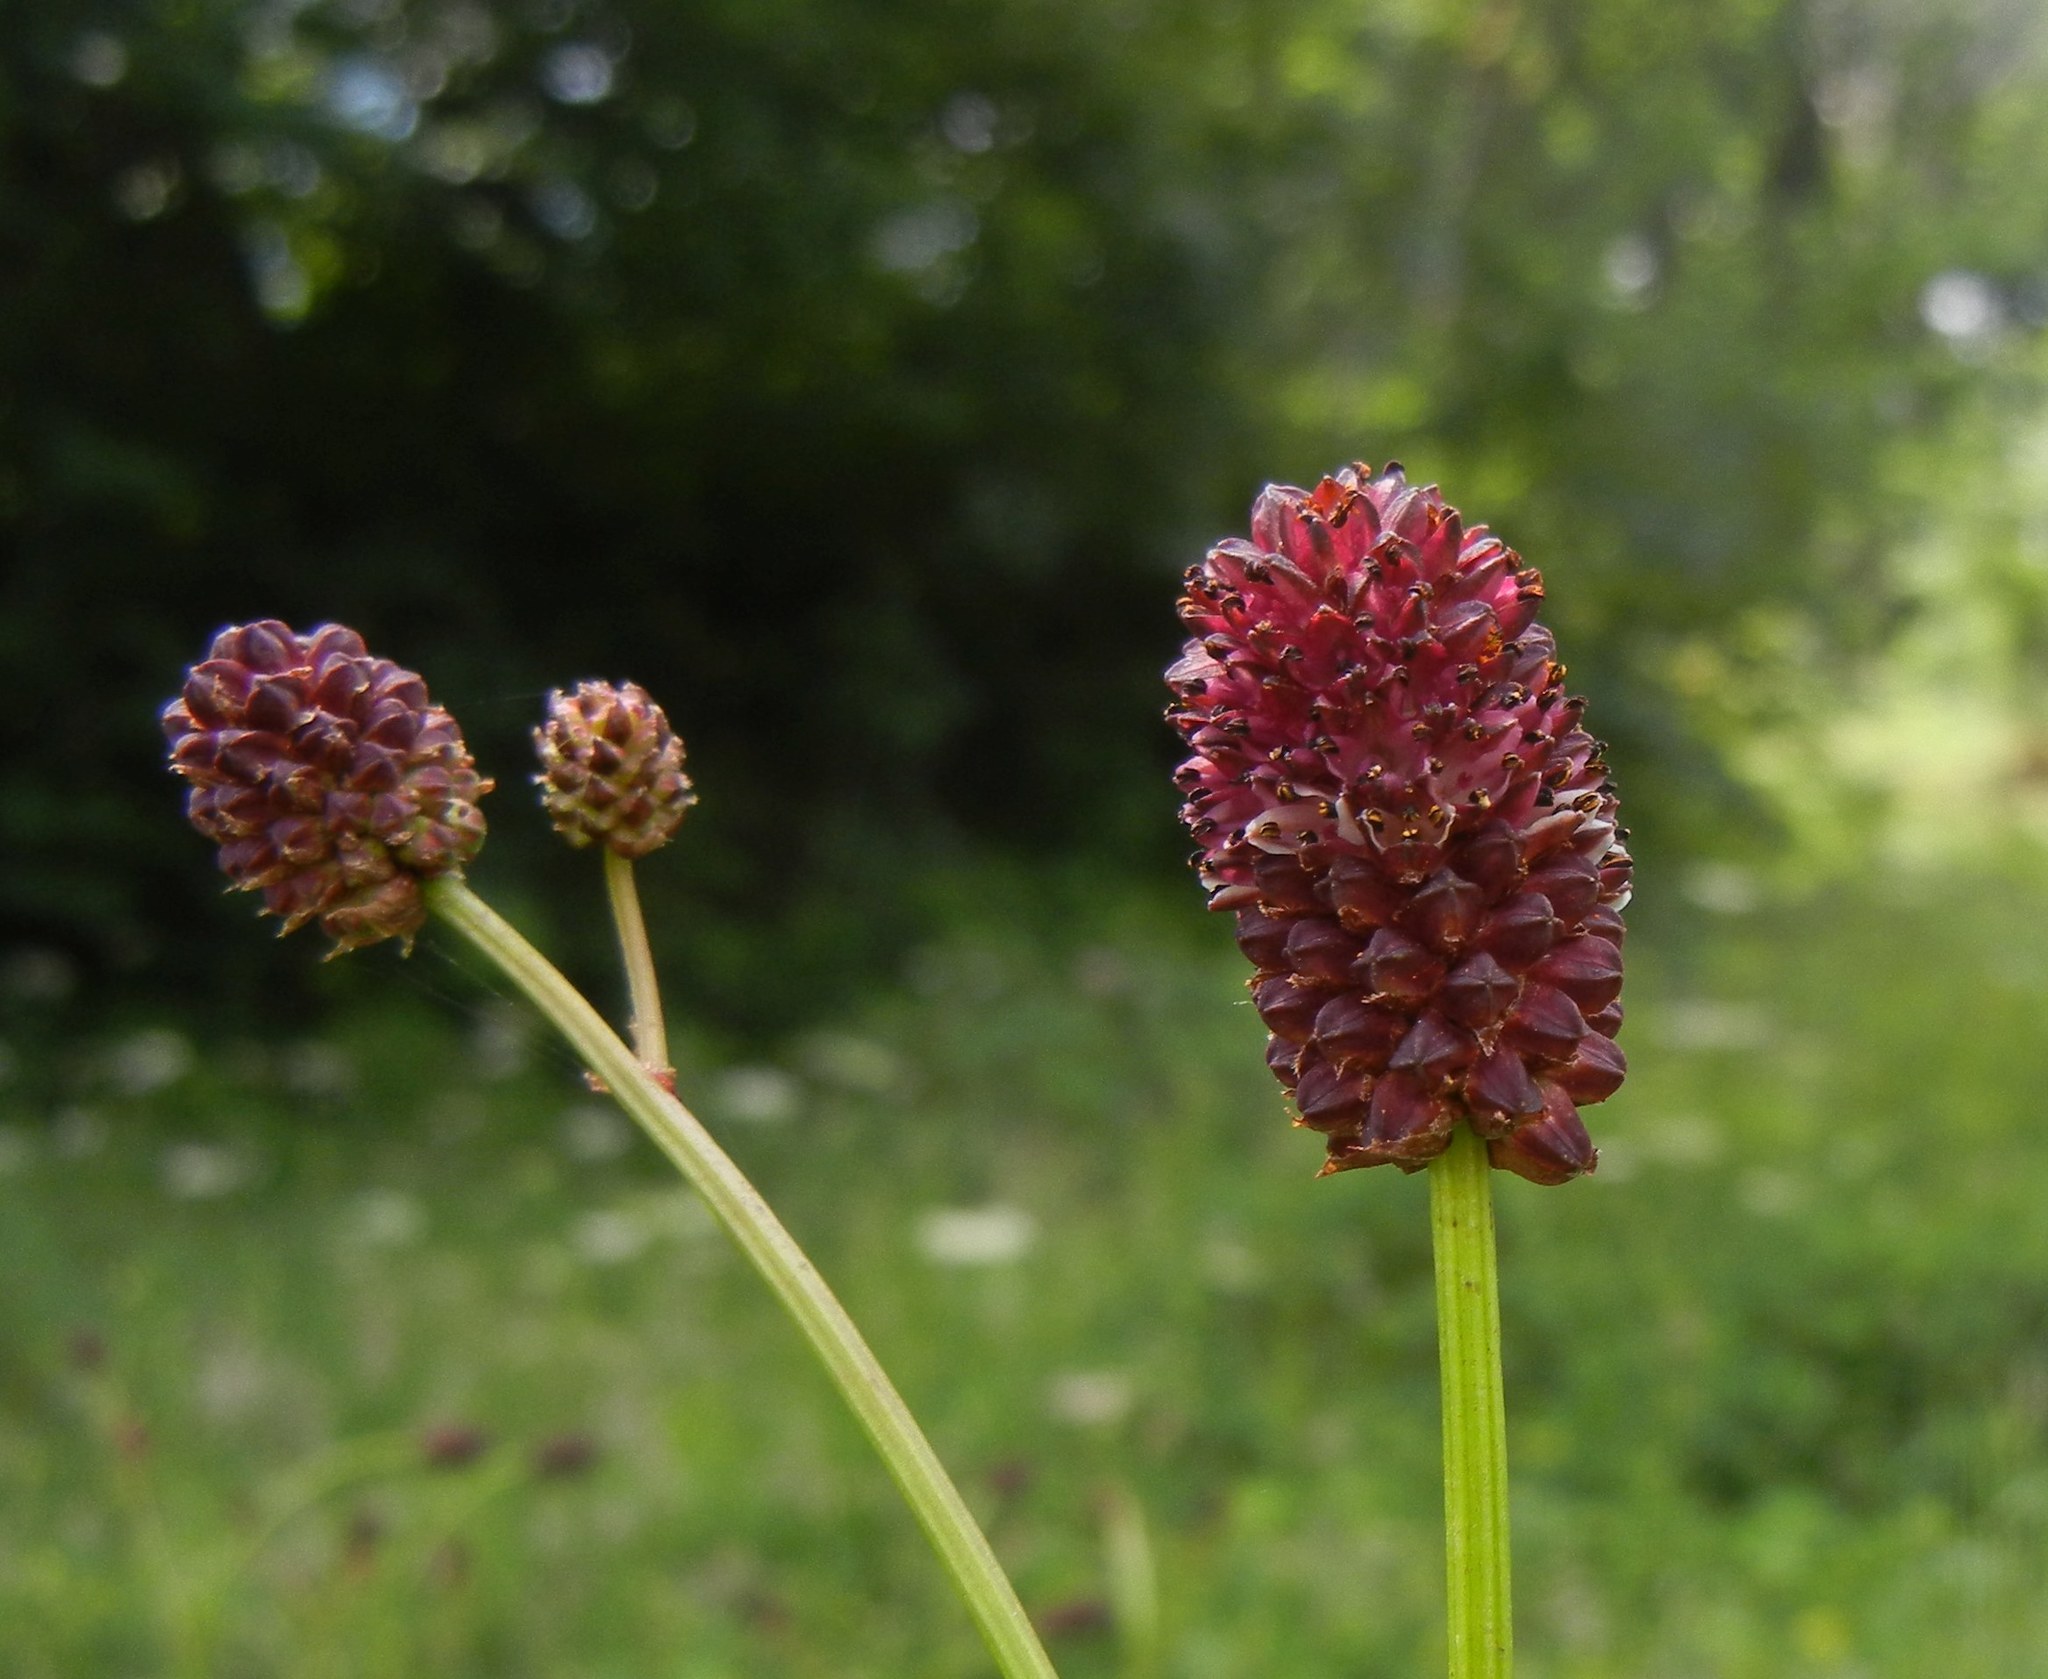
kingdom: Plantae
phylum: Tracheophyta
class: Magnoliopsida
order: Rosales
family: Rosaceae
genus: Sanguisorba
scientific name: Sanguisorba officinalis
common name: Great burnet
